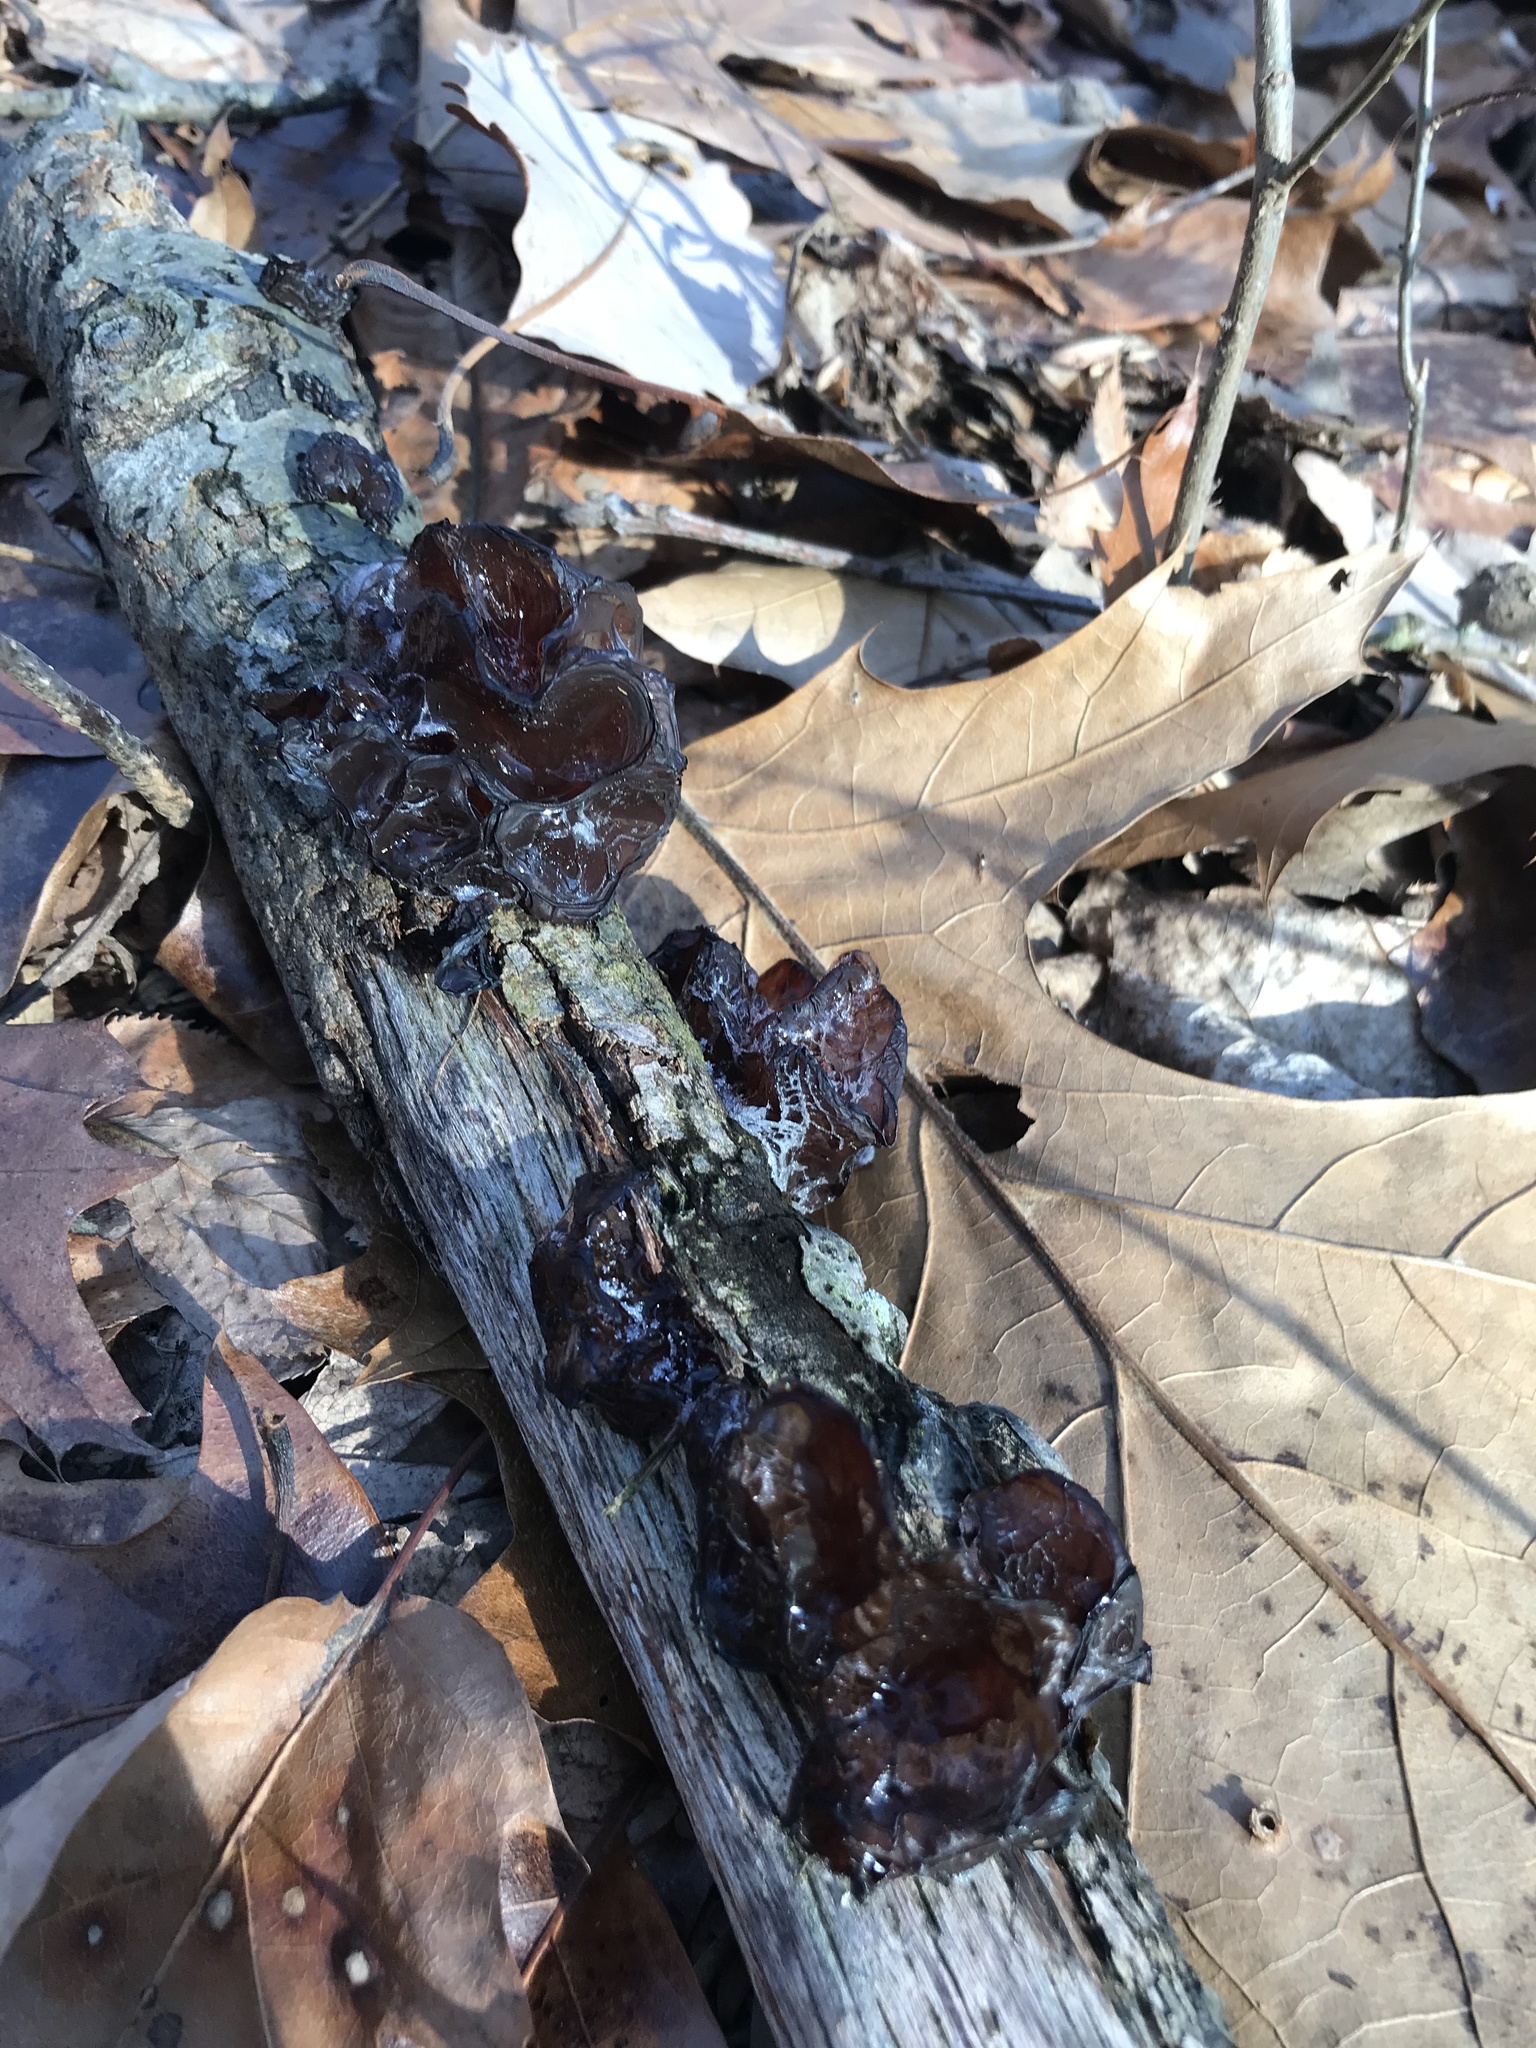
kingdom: Fungi
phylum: Basidiomycota
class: Agaricomycetes
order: Auriculariales
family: Auriculariaceae
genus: Exidia
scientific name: Exidia
